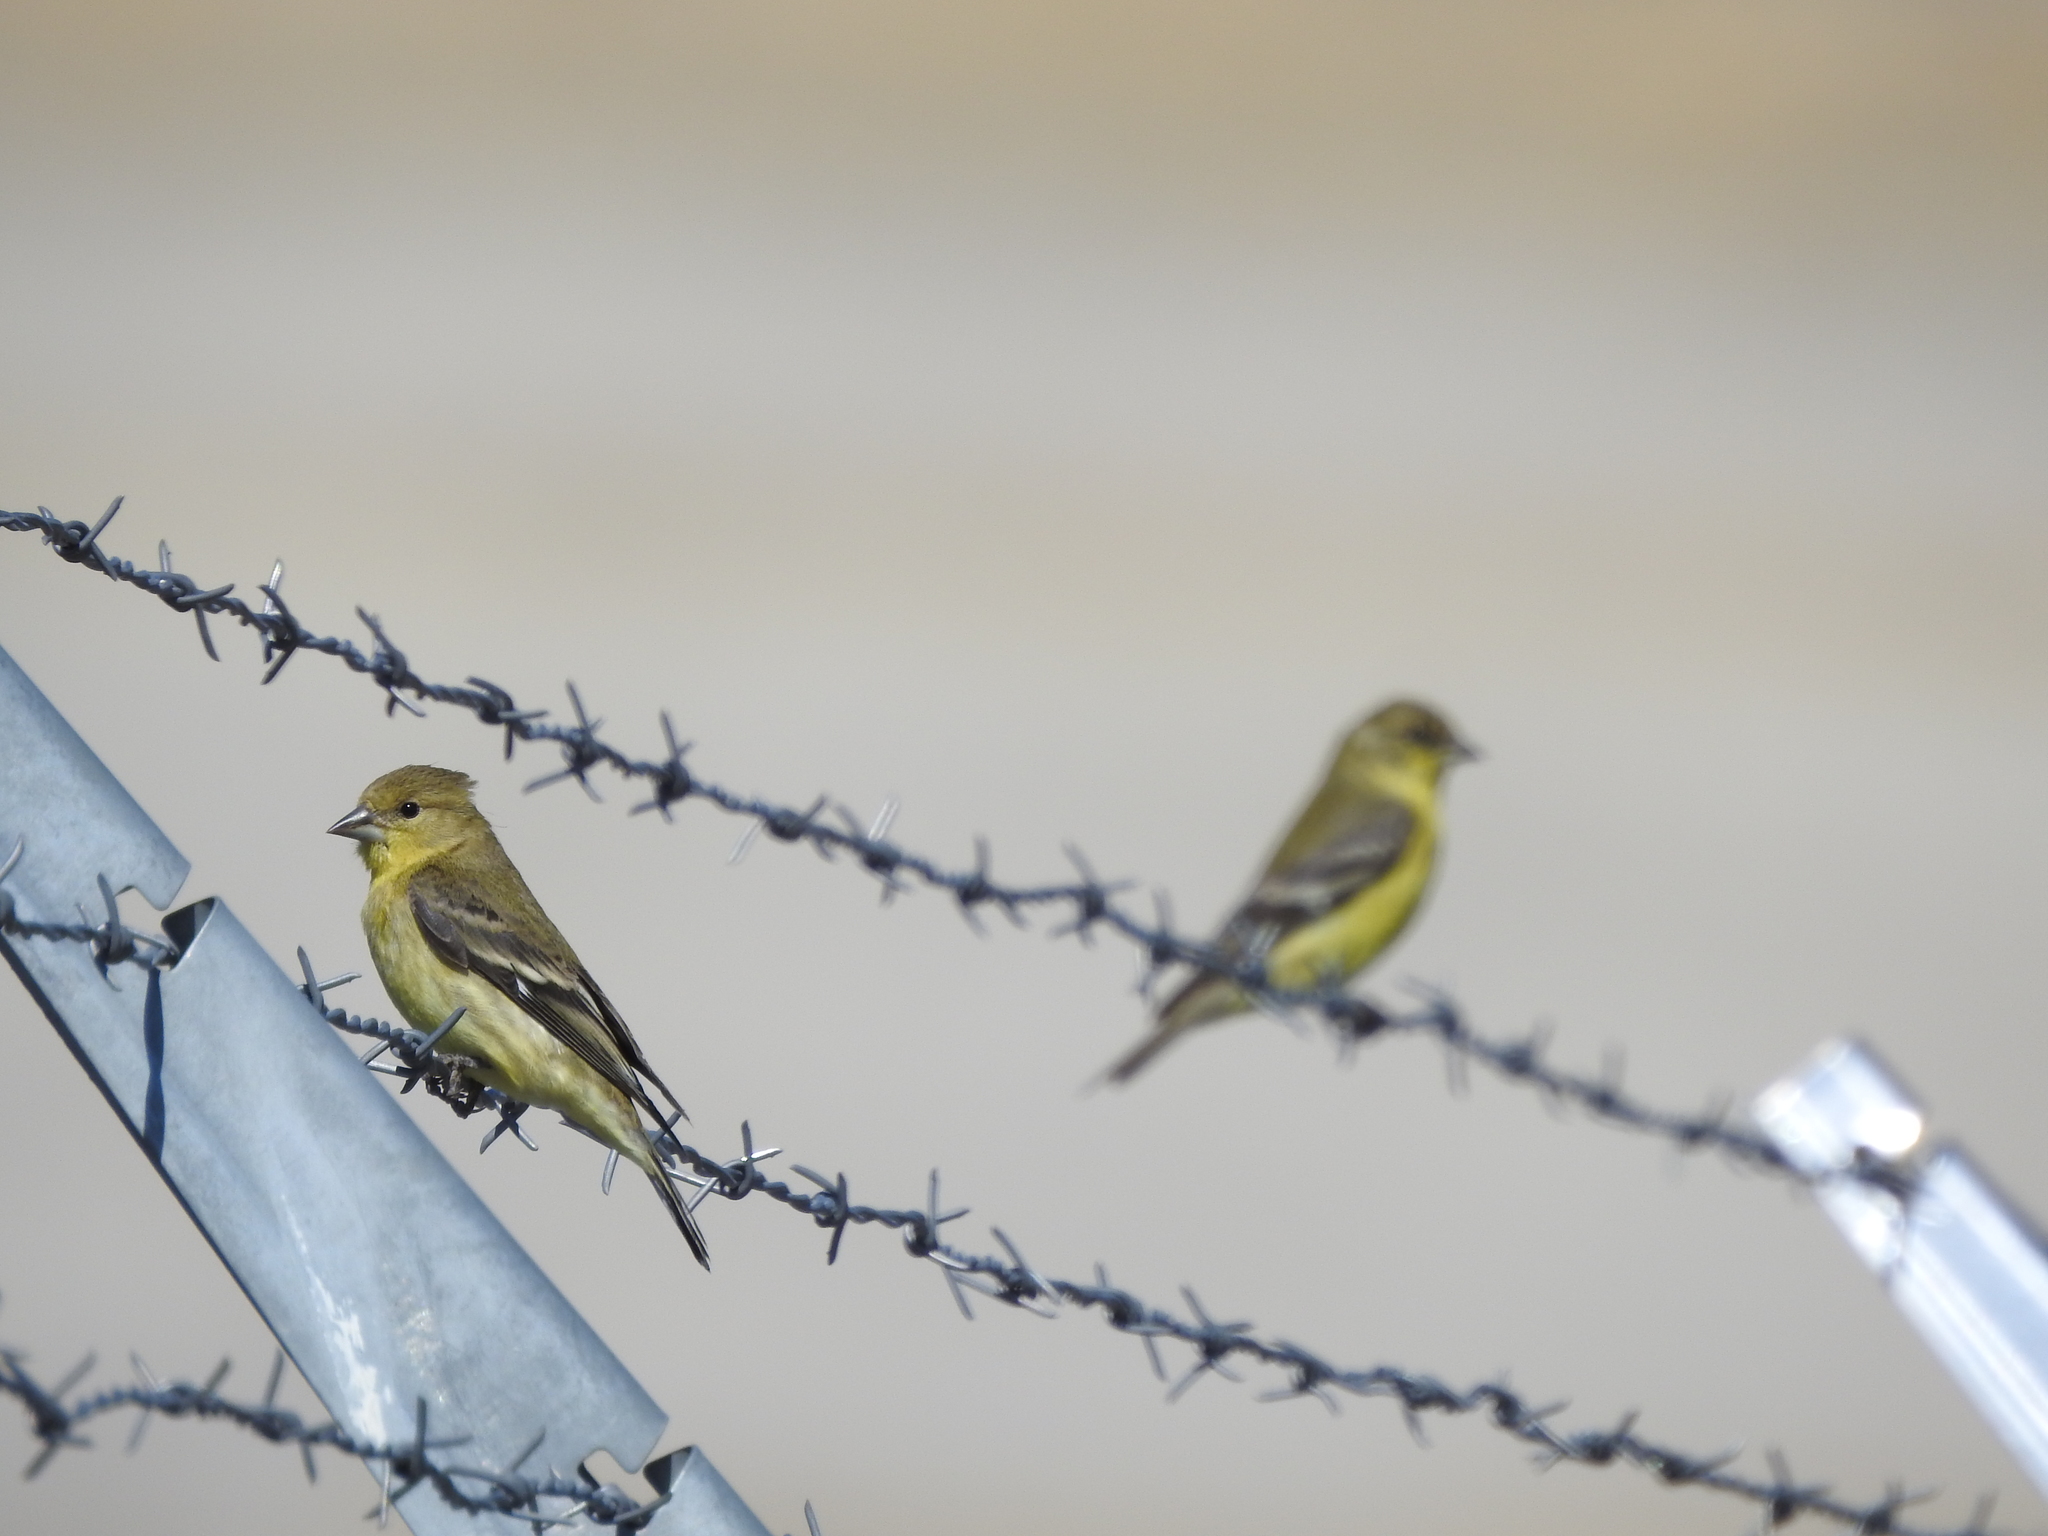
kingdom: Animalia
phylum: Chordata
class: Aves
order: Passeriformes
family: Fringillidae
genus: Spinus
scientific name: Spinus psaltria
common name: Lesser goldfinch
